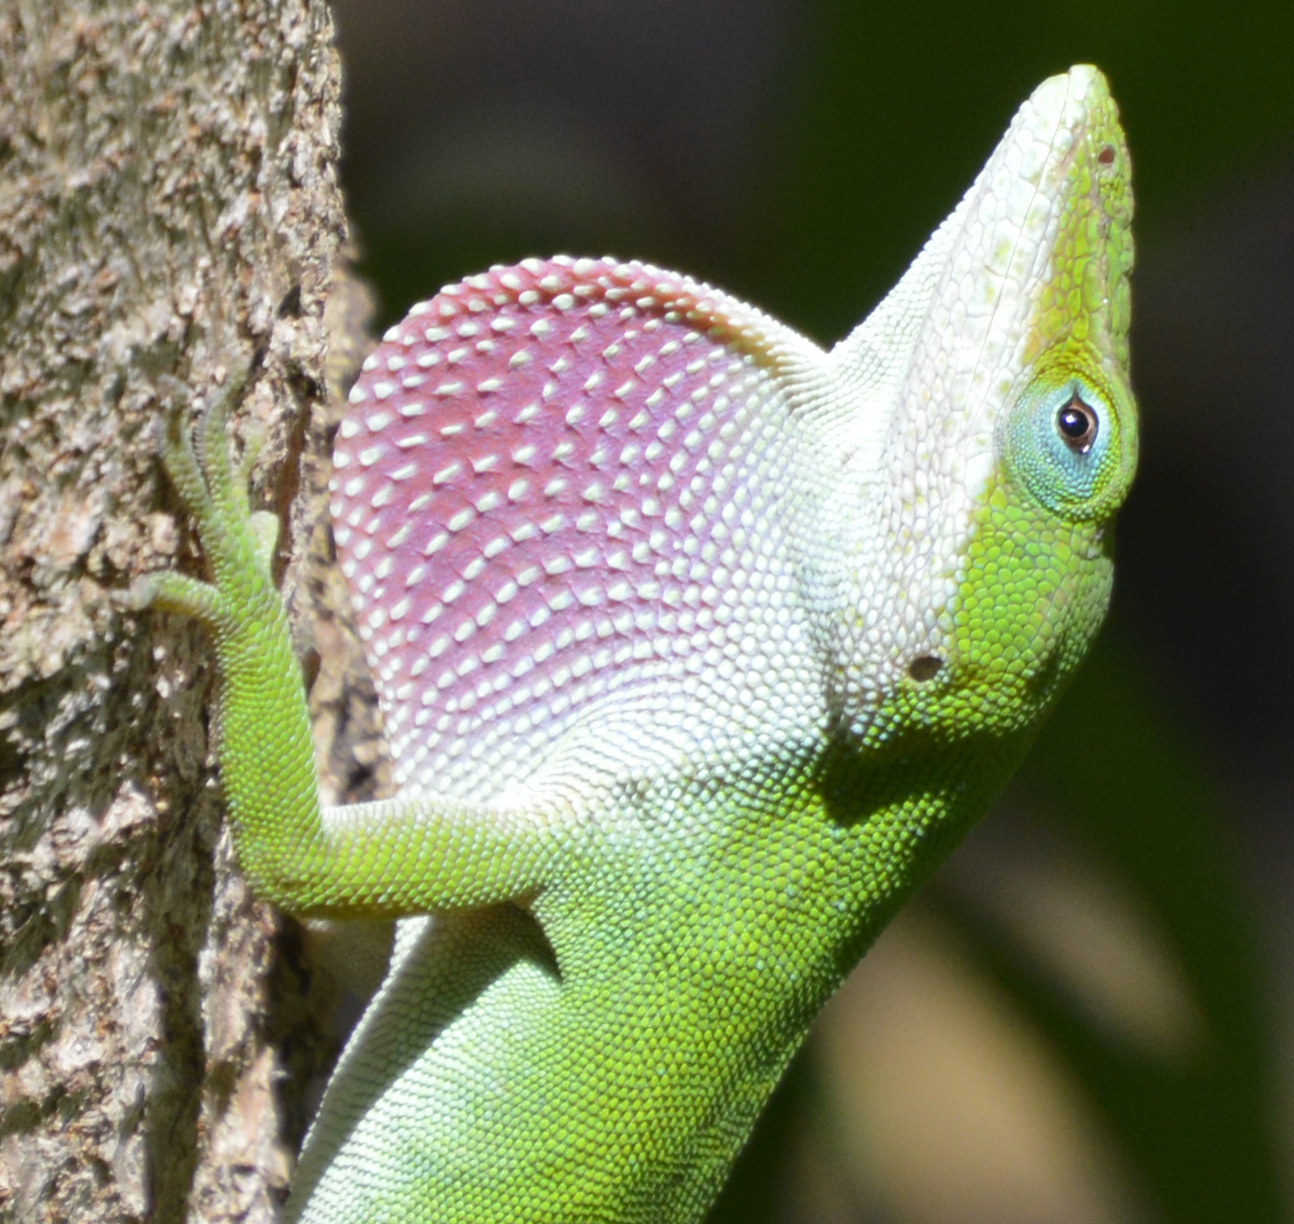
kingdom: Animalia
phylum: Chordata
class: Squamata
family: Dactyloidae
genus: Anolis
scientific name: Anolis carolinensis
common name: Green anole
